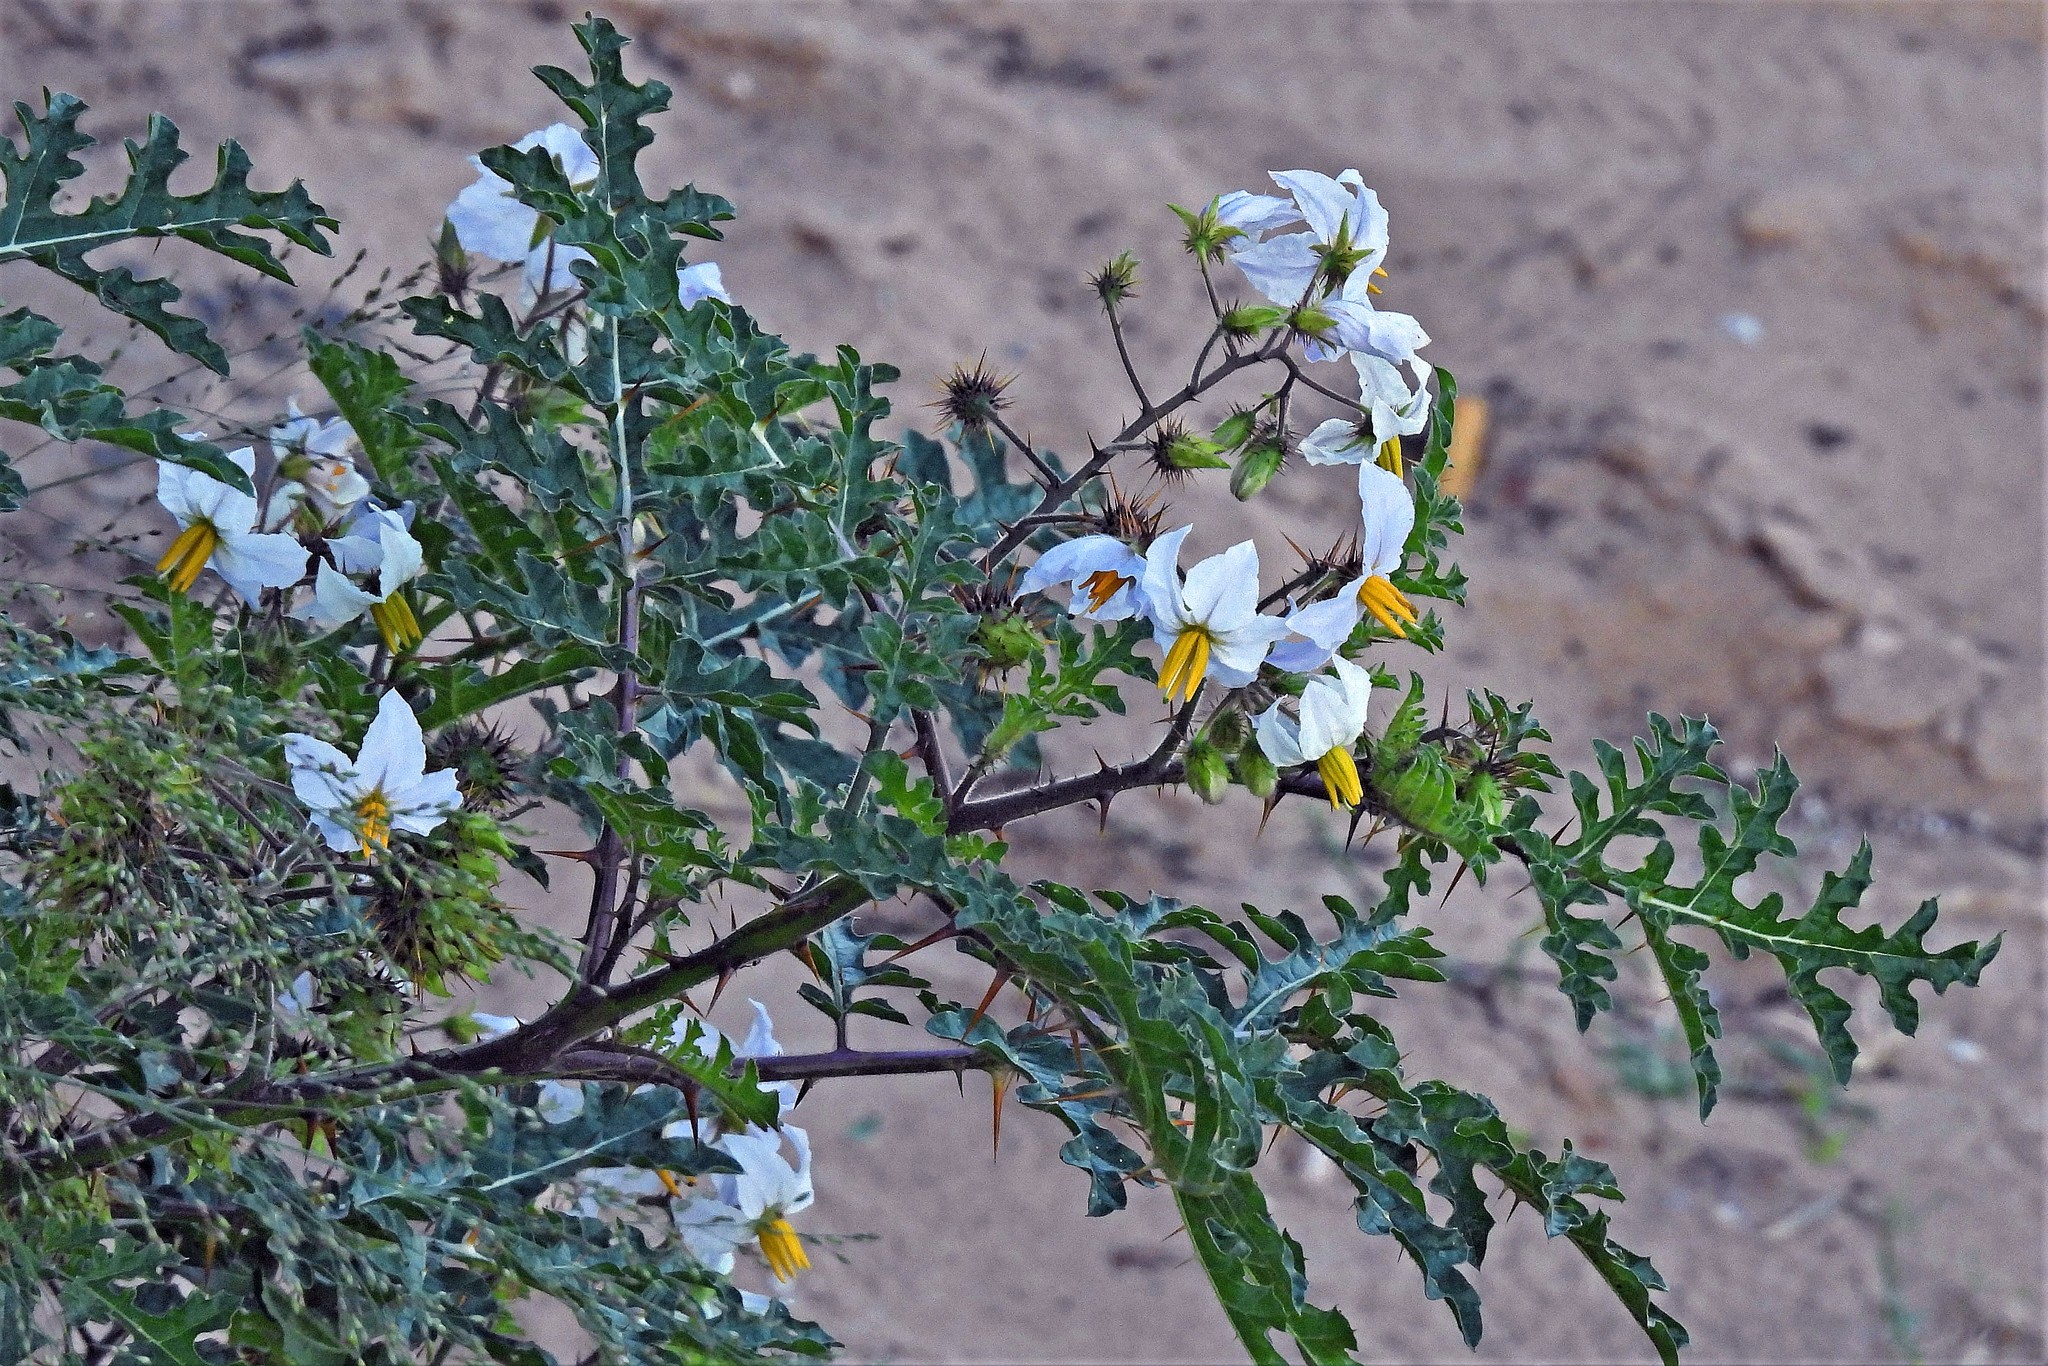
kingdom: Plantae
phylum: Tracheophyta
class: Magnoliopsida
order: Solanales
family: Solanaceae
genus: Solanum
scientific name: Solanum sisymbriifolium
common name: Red buffalo-bur
